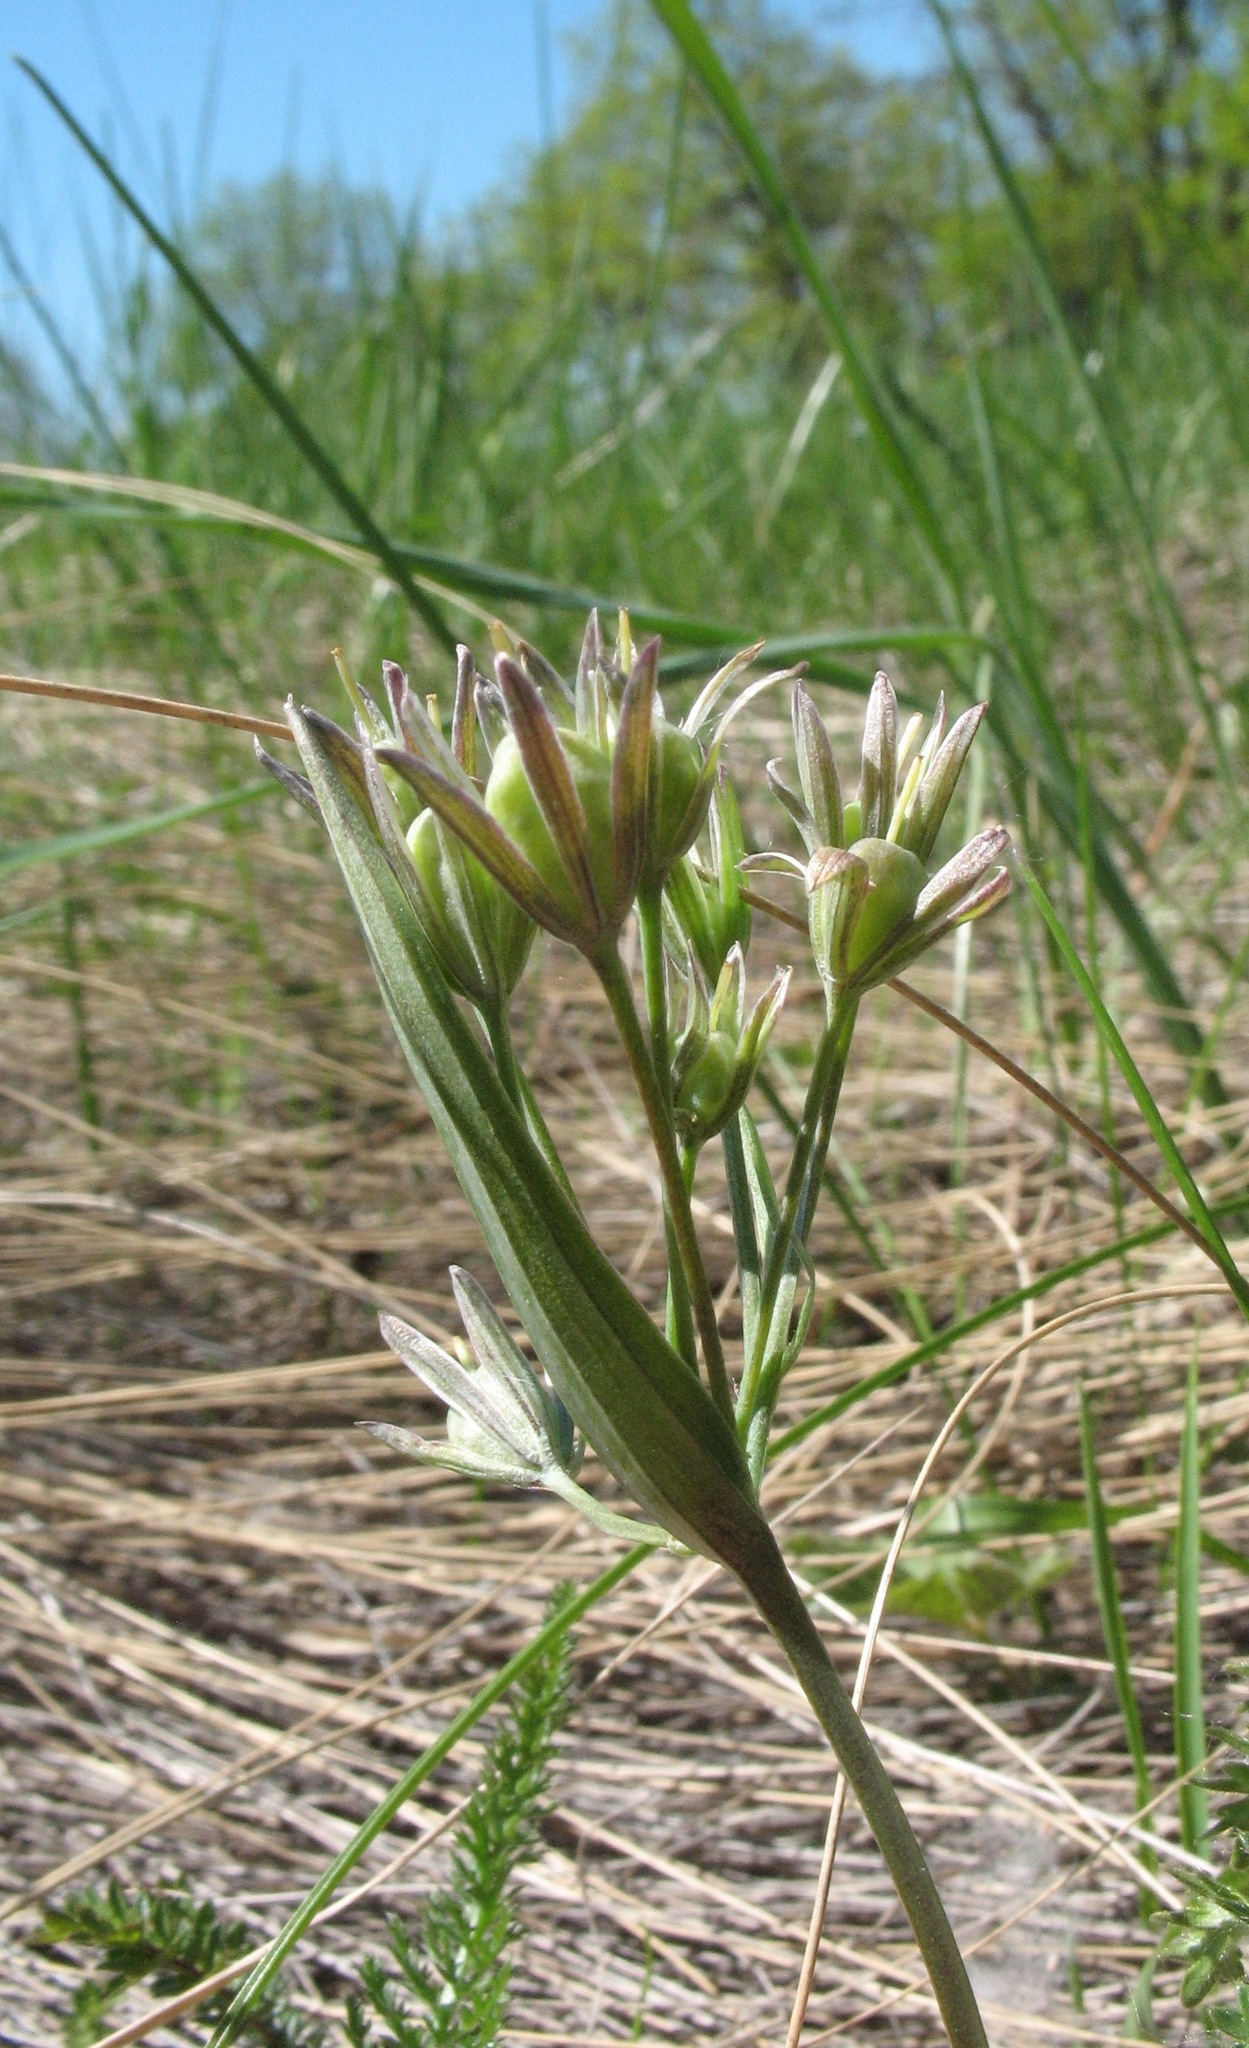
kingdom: Plantae
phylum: Tracheophyta
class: Liliopsida
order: Liliales
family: Liliaceae
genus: Gagea
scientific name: Gagea fragifera
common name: Lily
